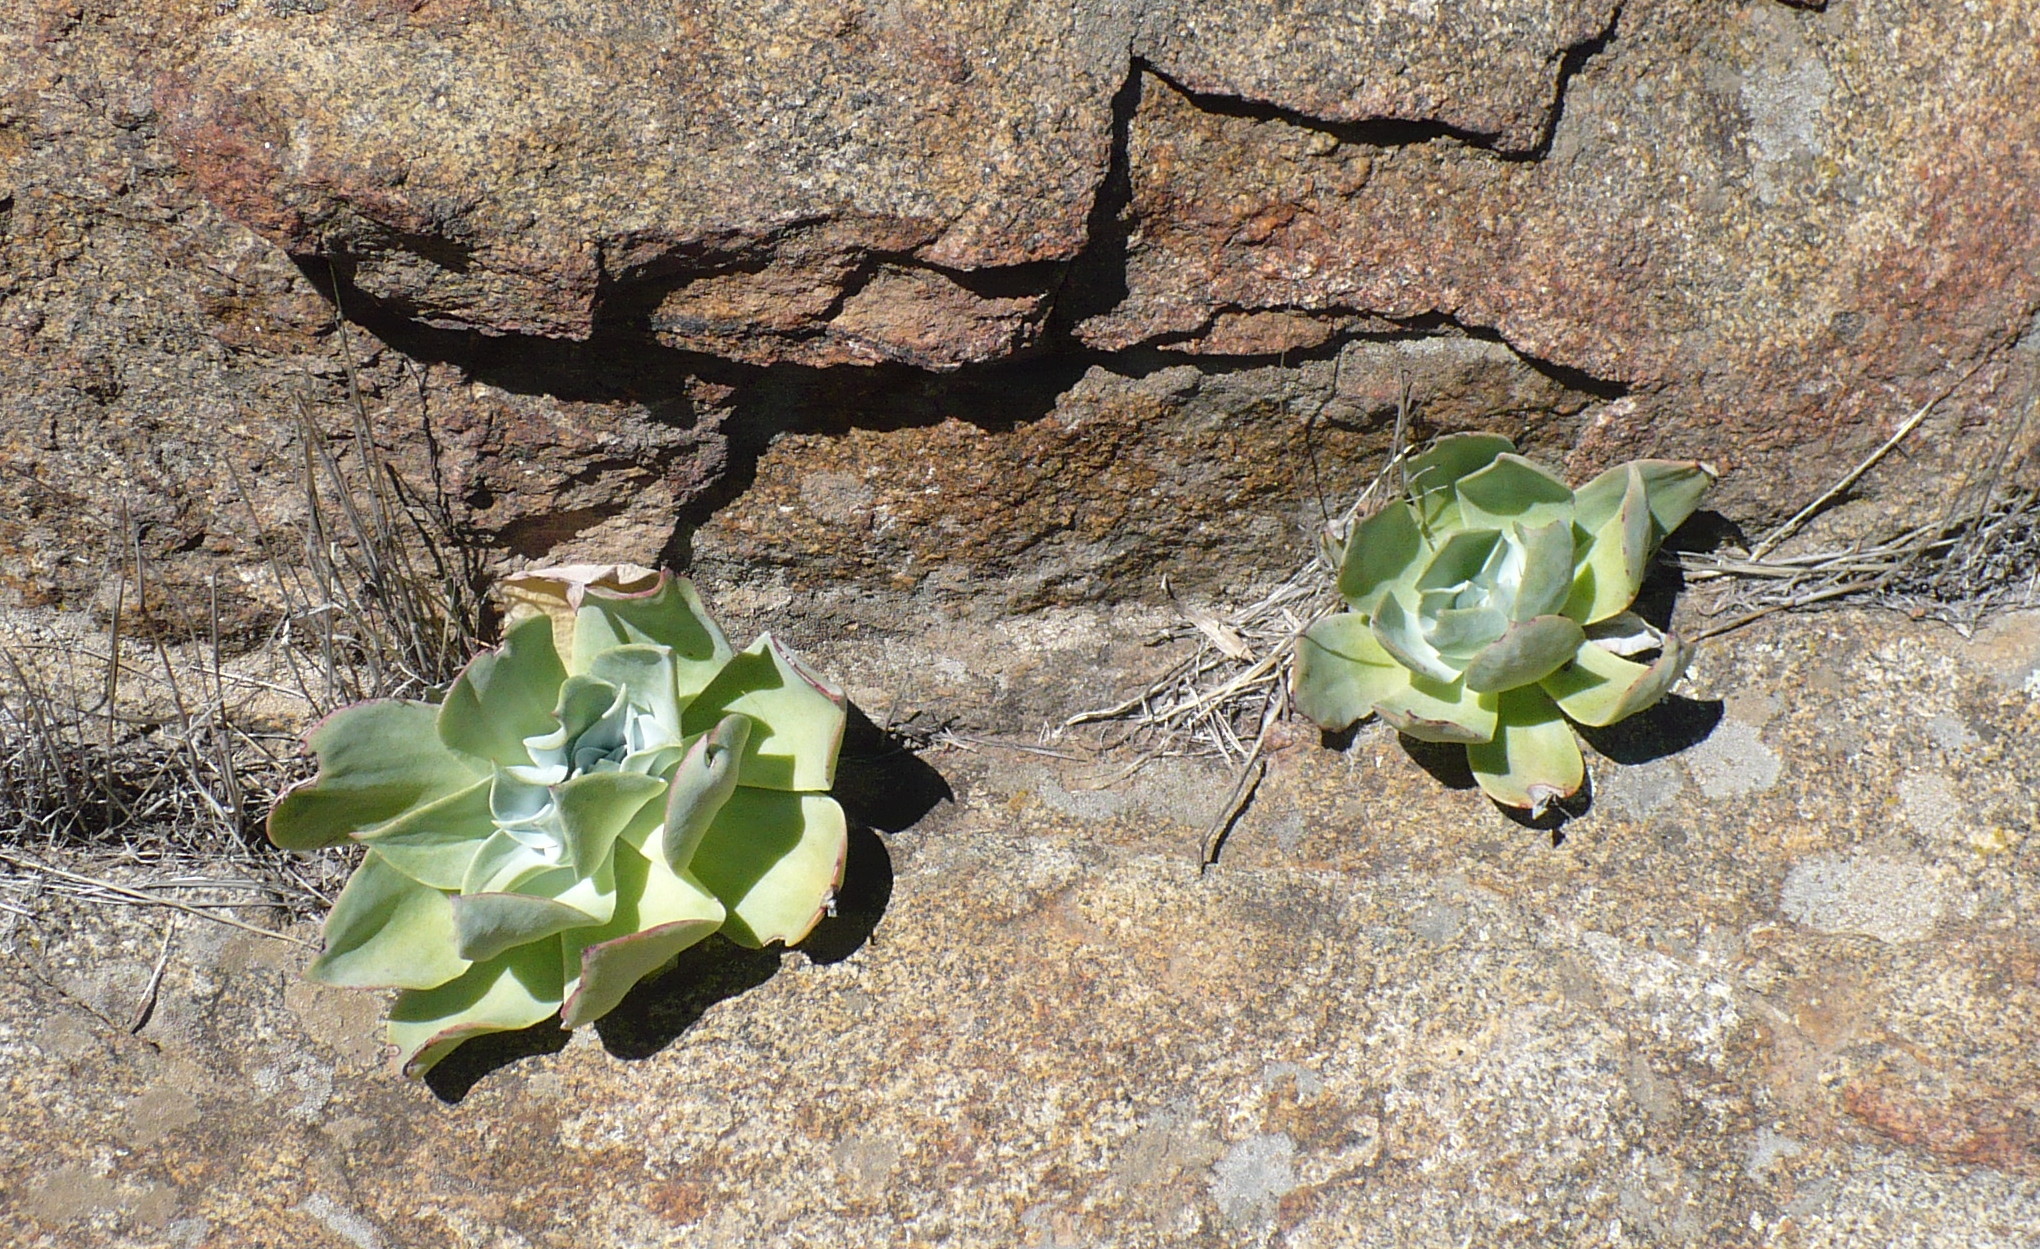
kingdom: Plantae
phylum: Tracheophyta
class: Magnoliopsida
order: Saxifragales
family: Crassulaceae
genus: Dudleya
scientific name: Dudleya pulverulenta
